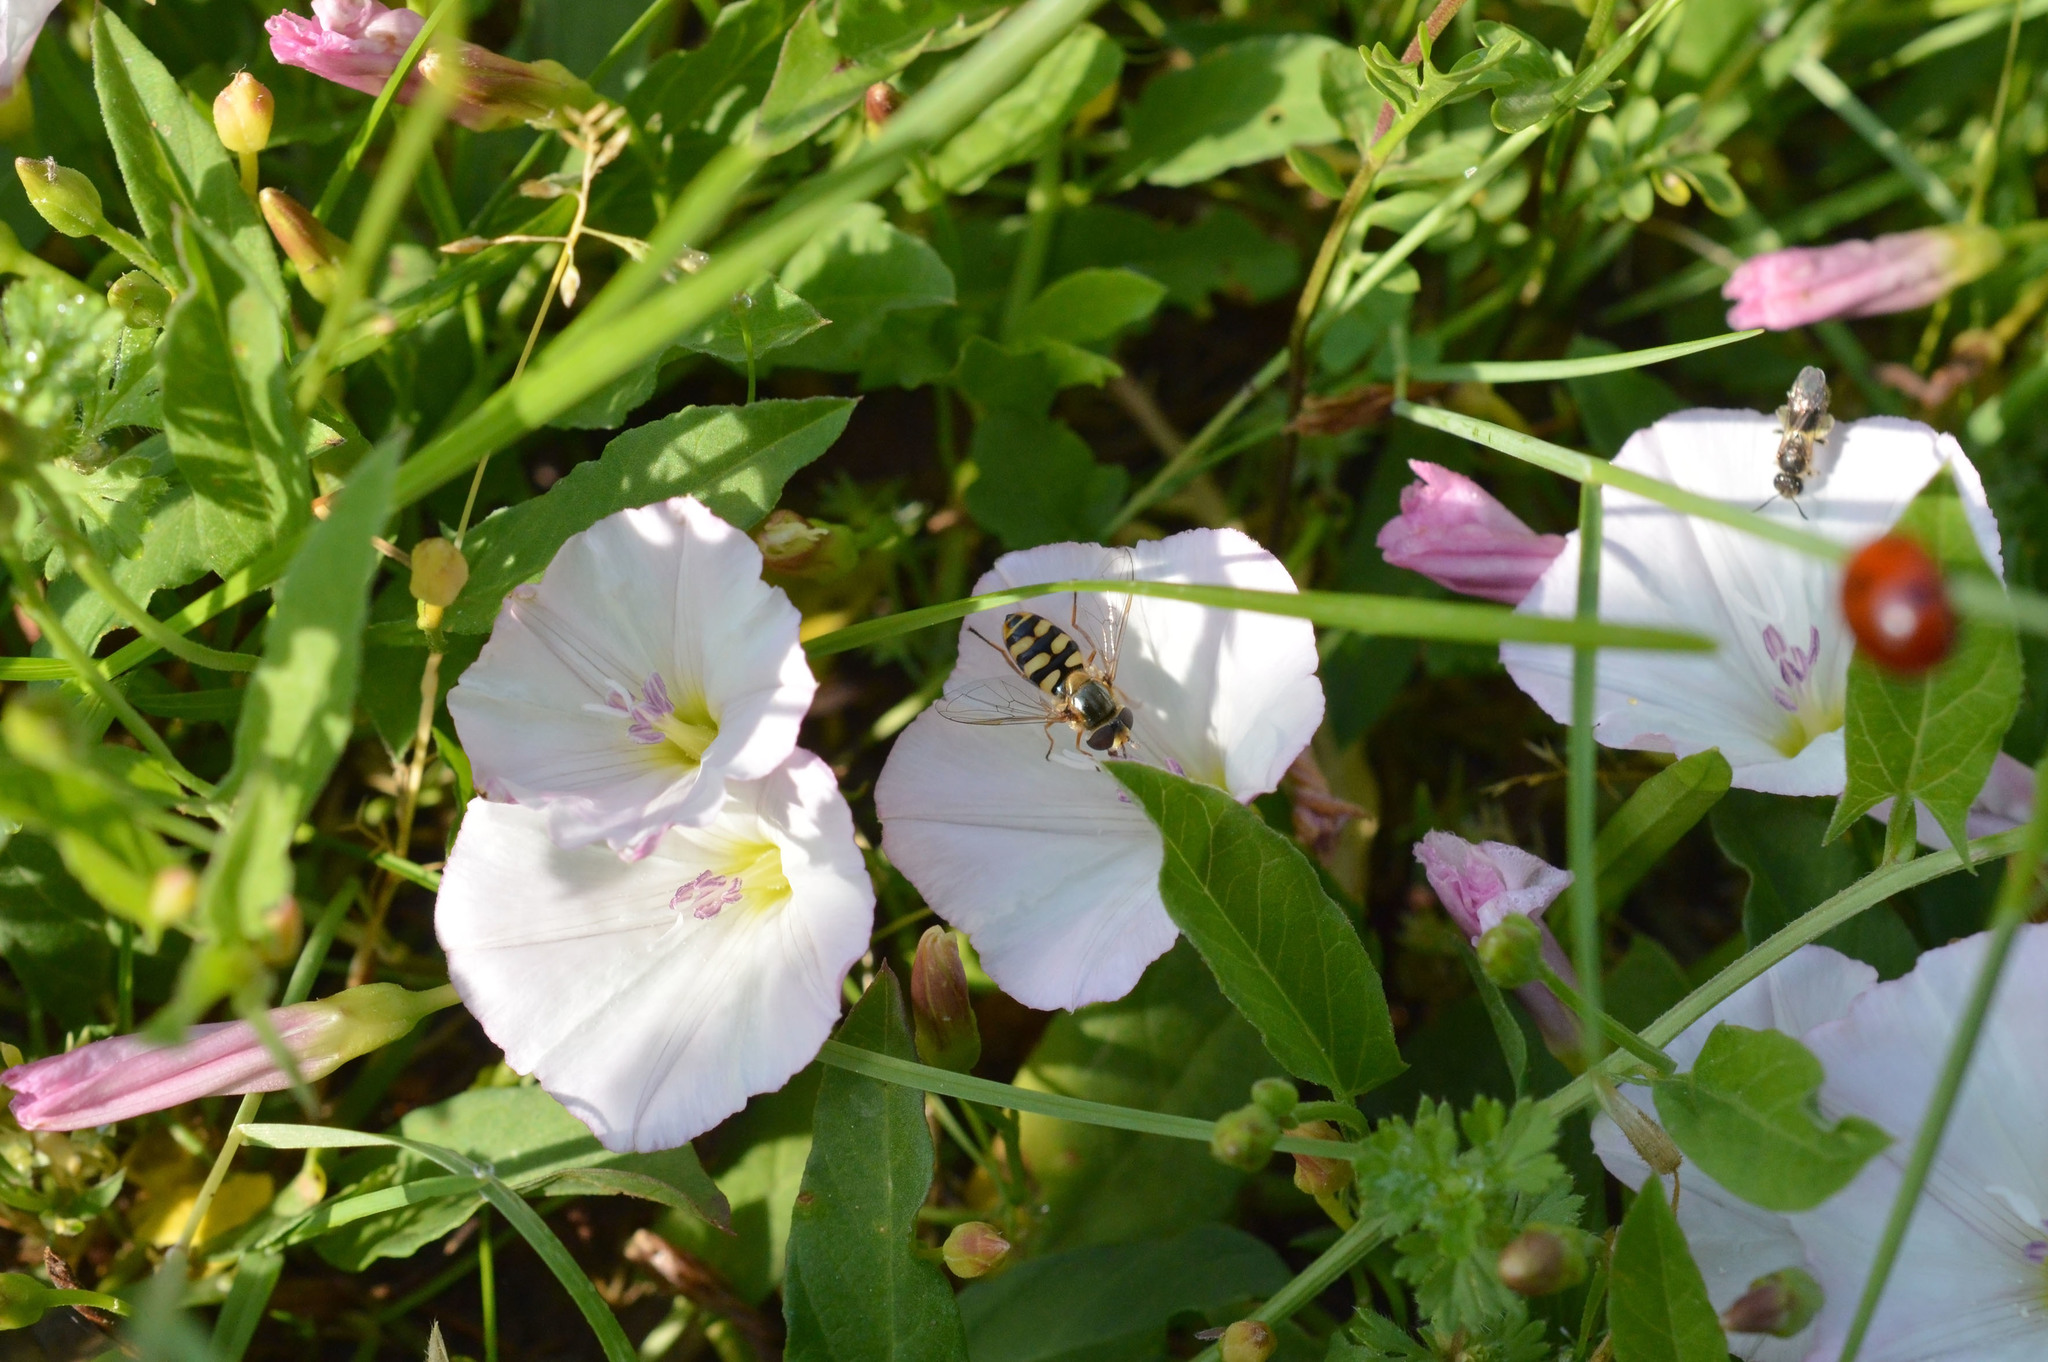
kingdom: Animalia
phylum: Arthropoda
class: Insecta
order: Diptera
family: Syrphidae
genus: Eupeodes
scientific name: Eupeodes corollae
